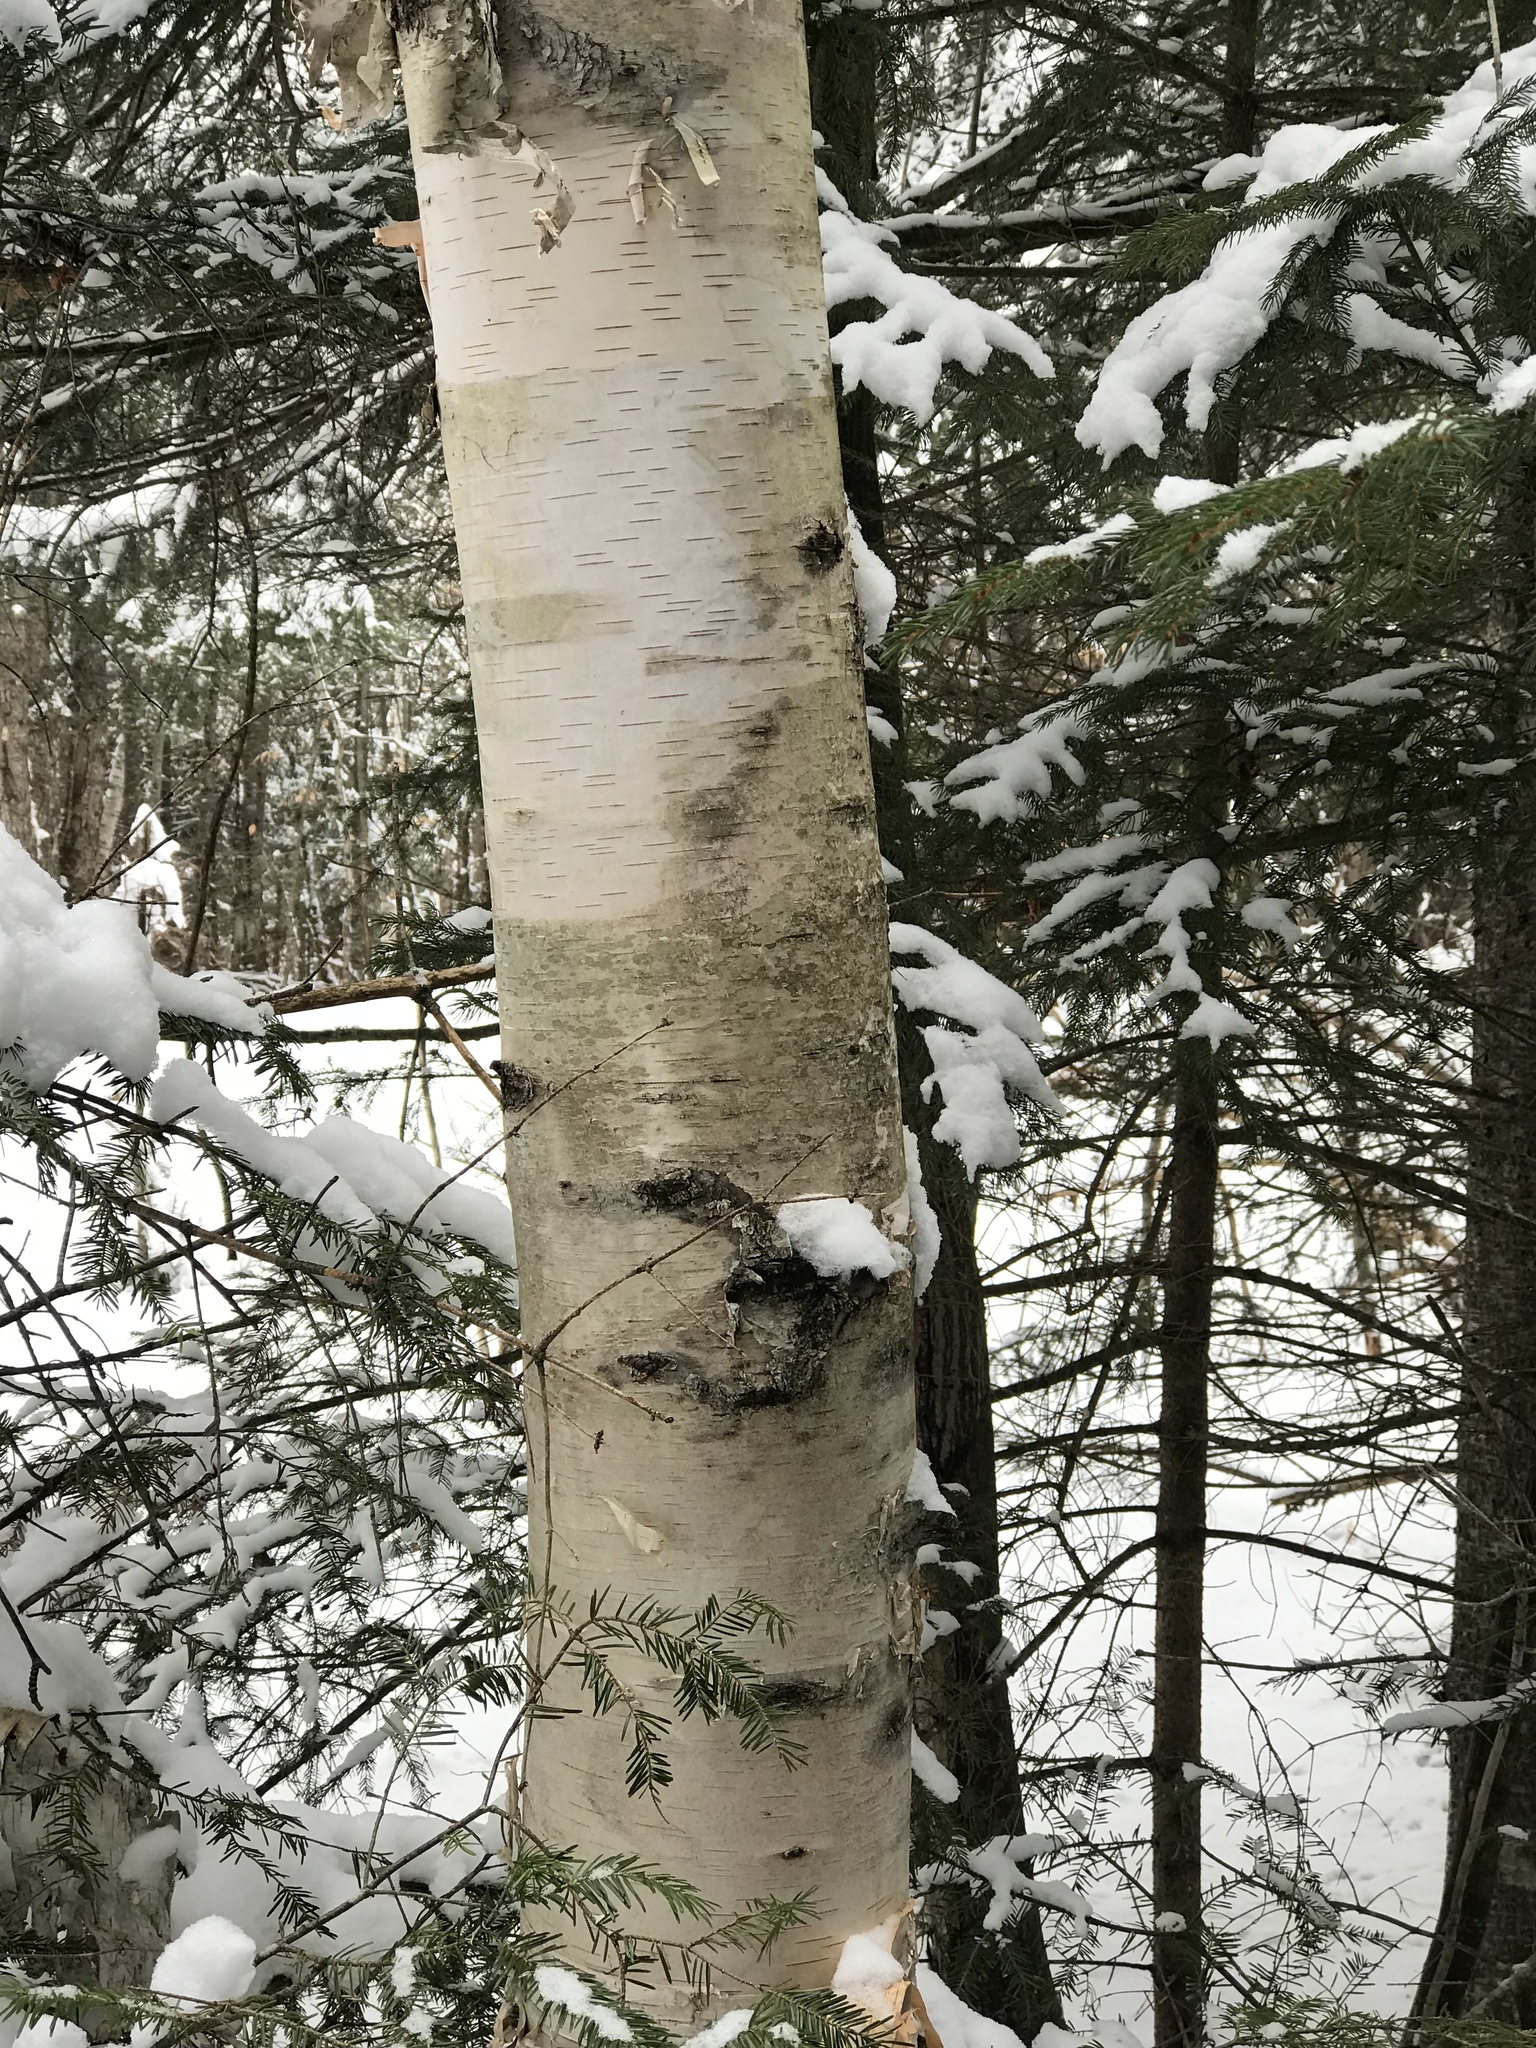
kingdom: Plantae
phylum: Tracheophyta
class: Magnoliopsida
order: Fagales
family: Betulaceae
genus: Betula
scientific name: Betula papyrifera
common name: Paper birch
